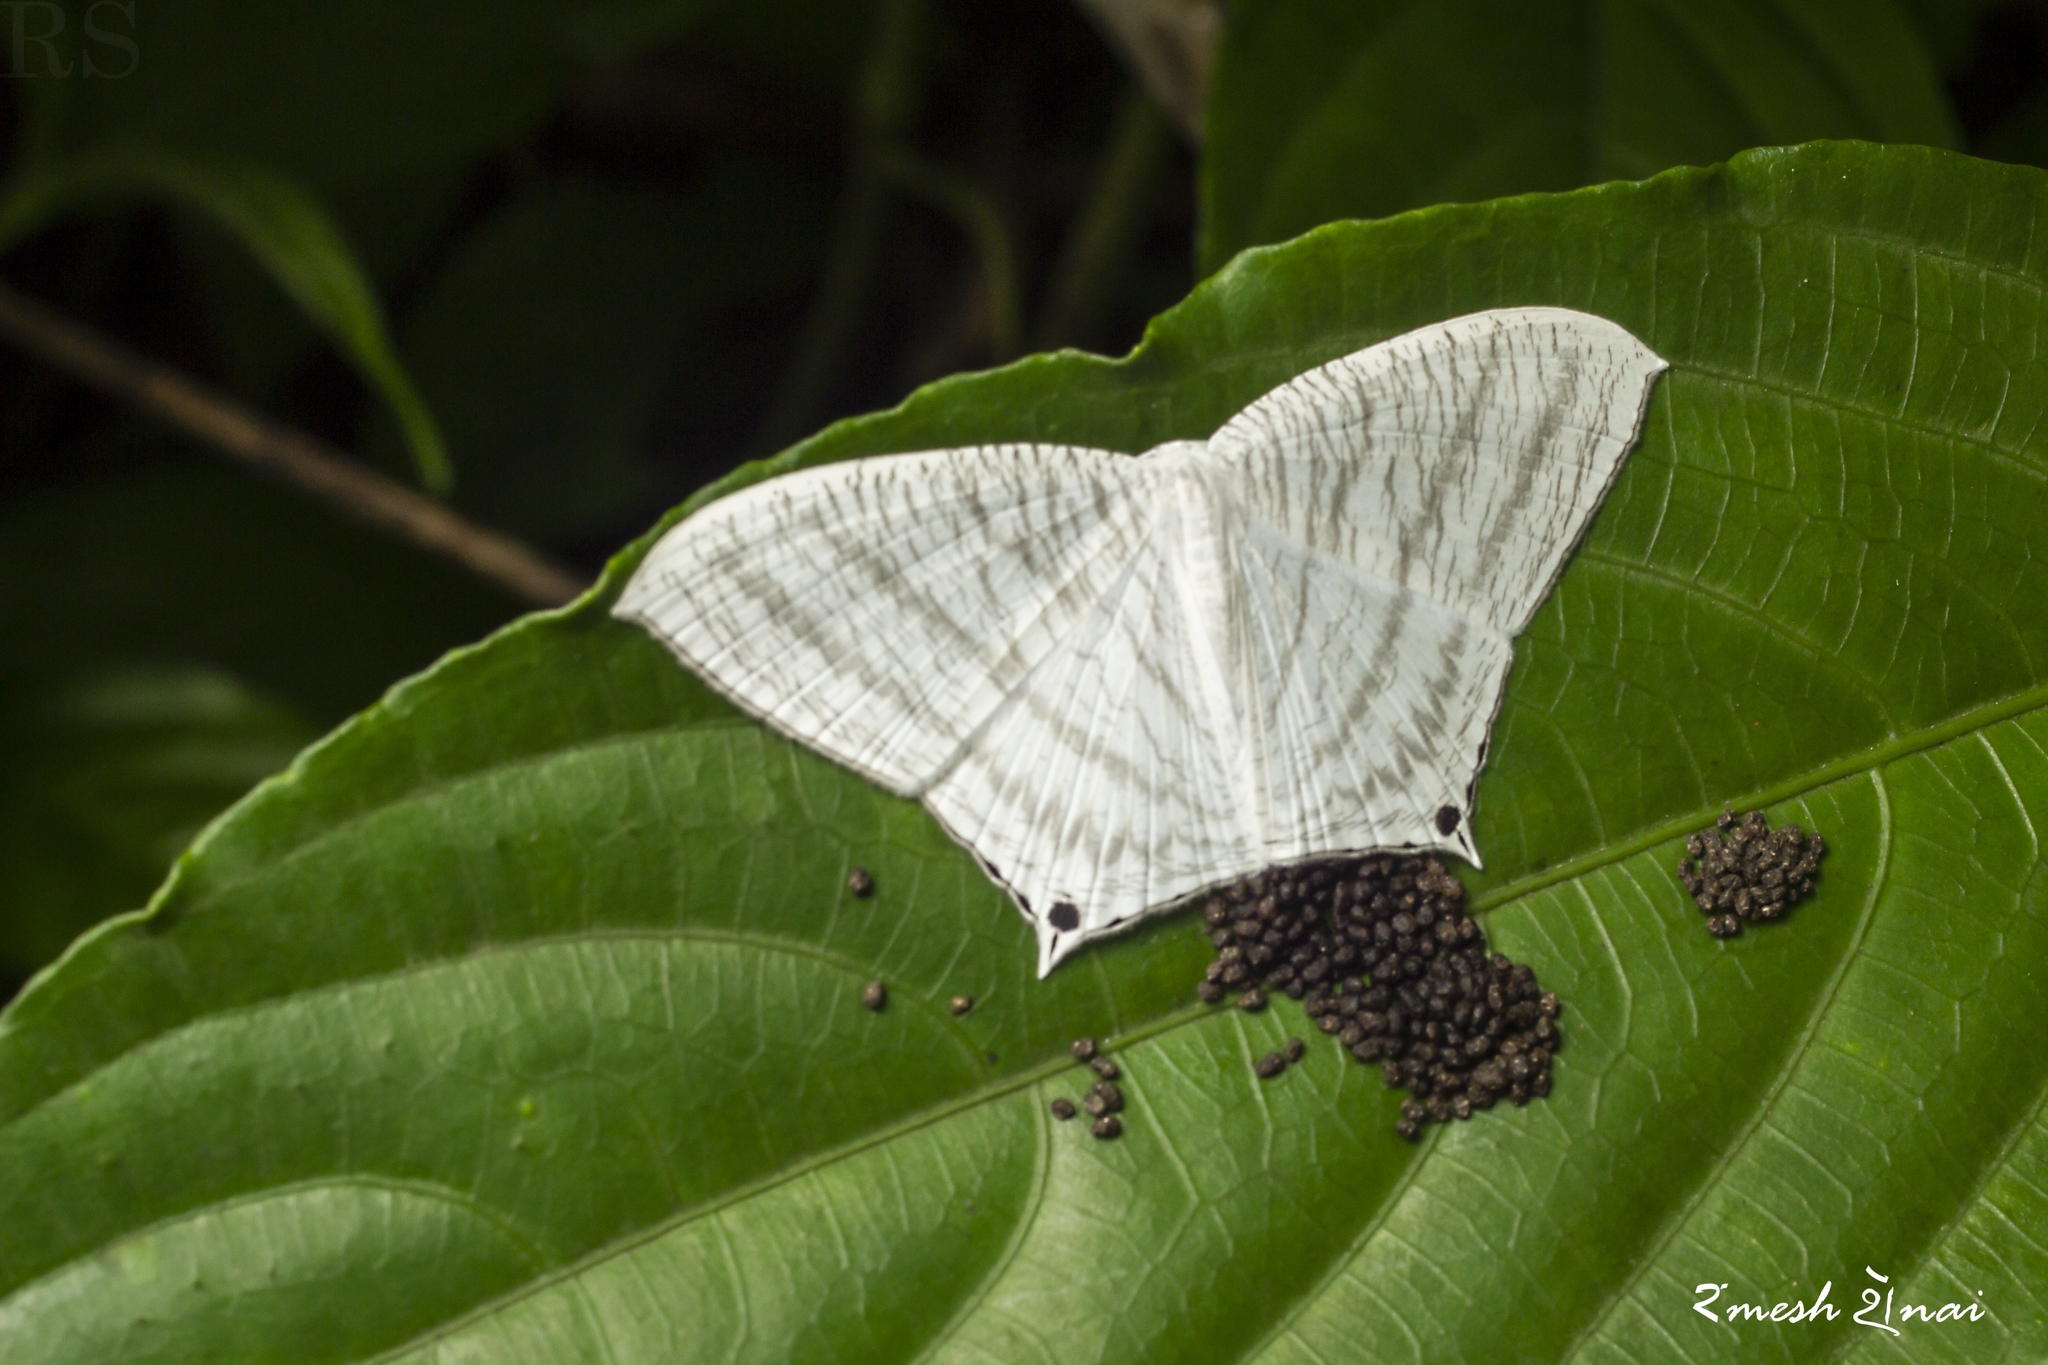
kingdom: Animalia
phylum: Arthropoda
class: Insecta
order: Lepidoptera
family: Uraniidae
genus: Micronia
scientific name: Micronia aculeata
